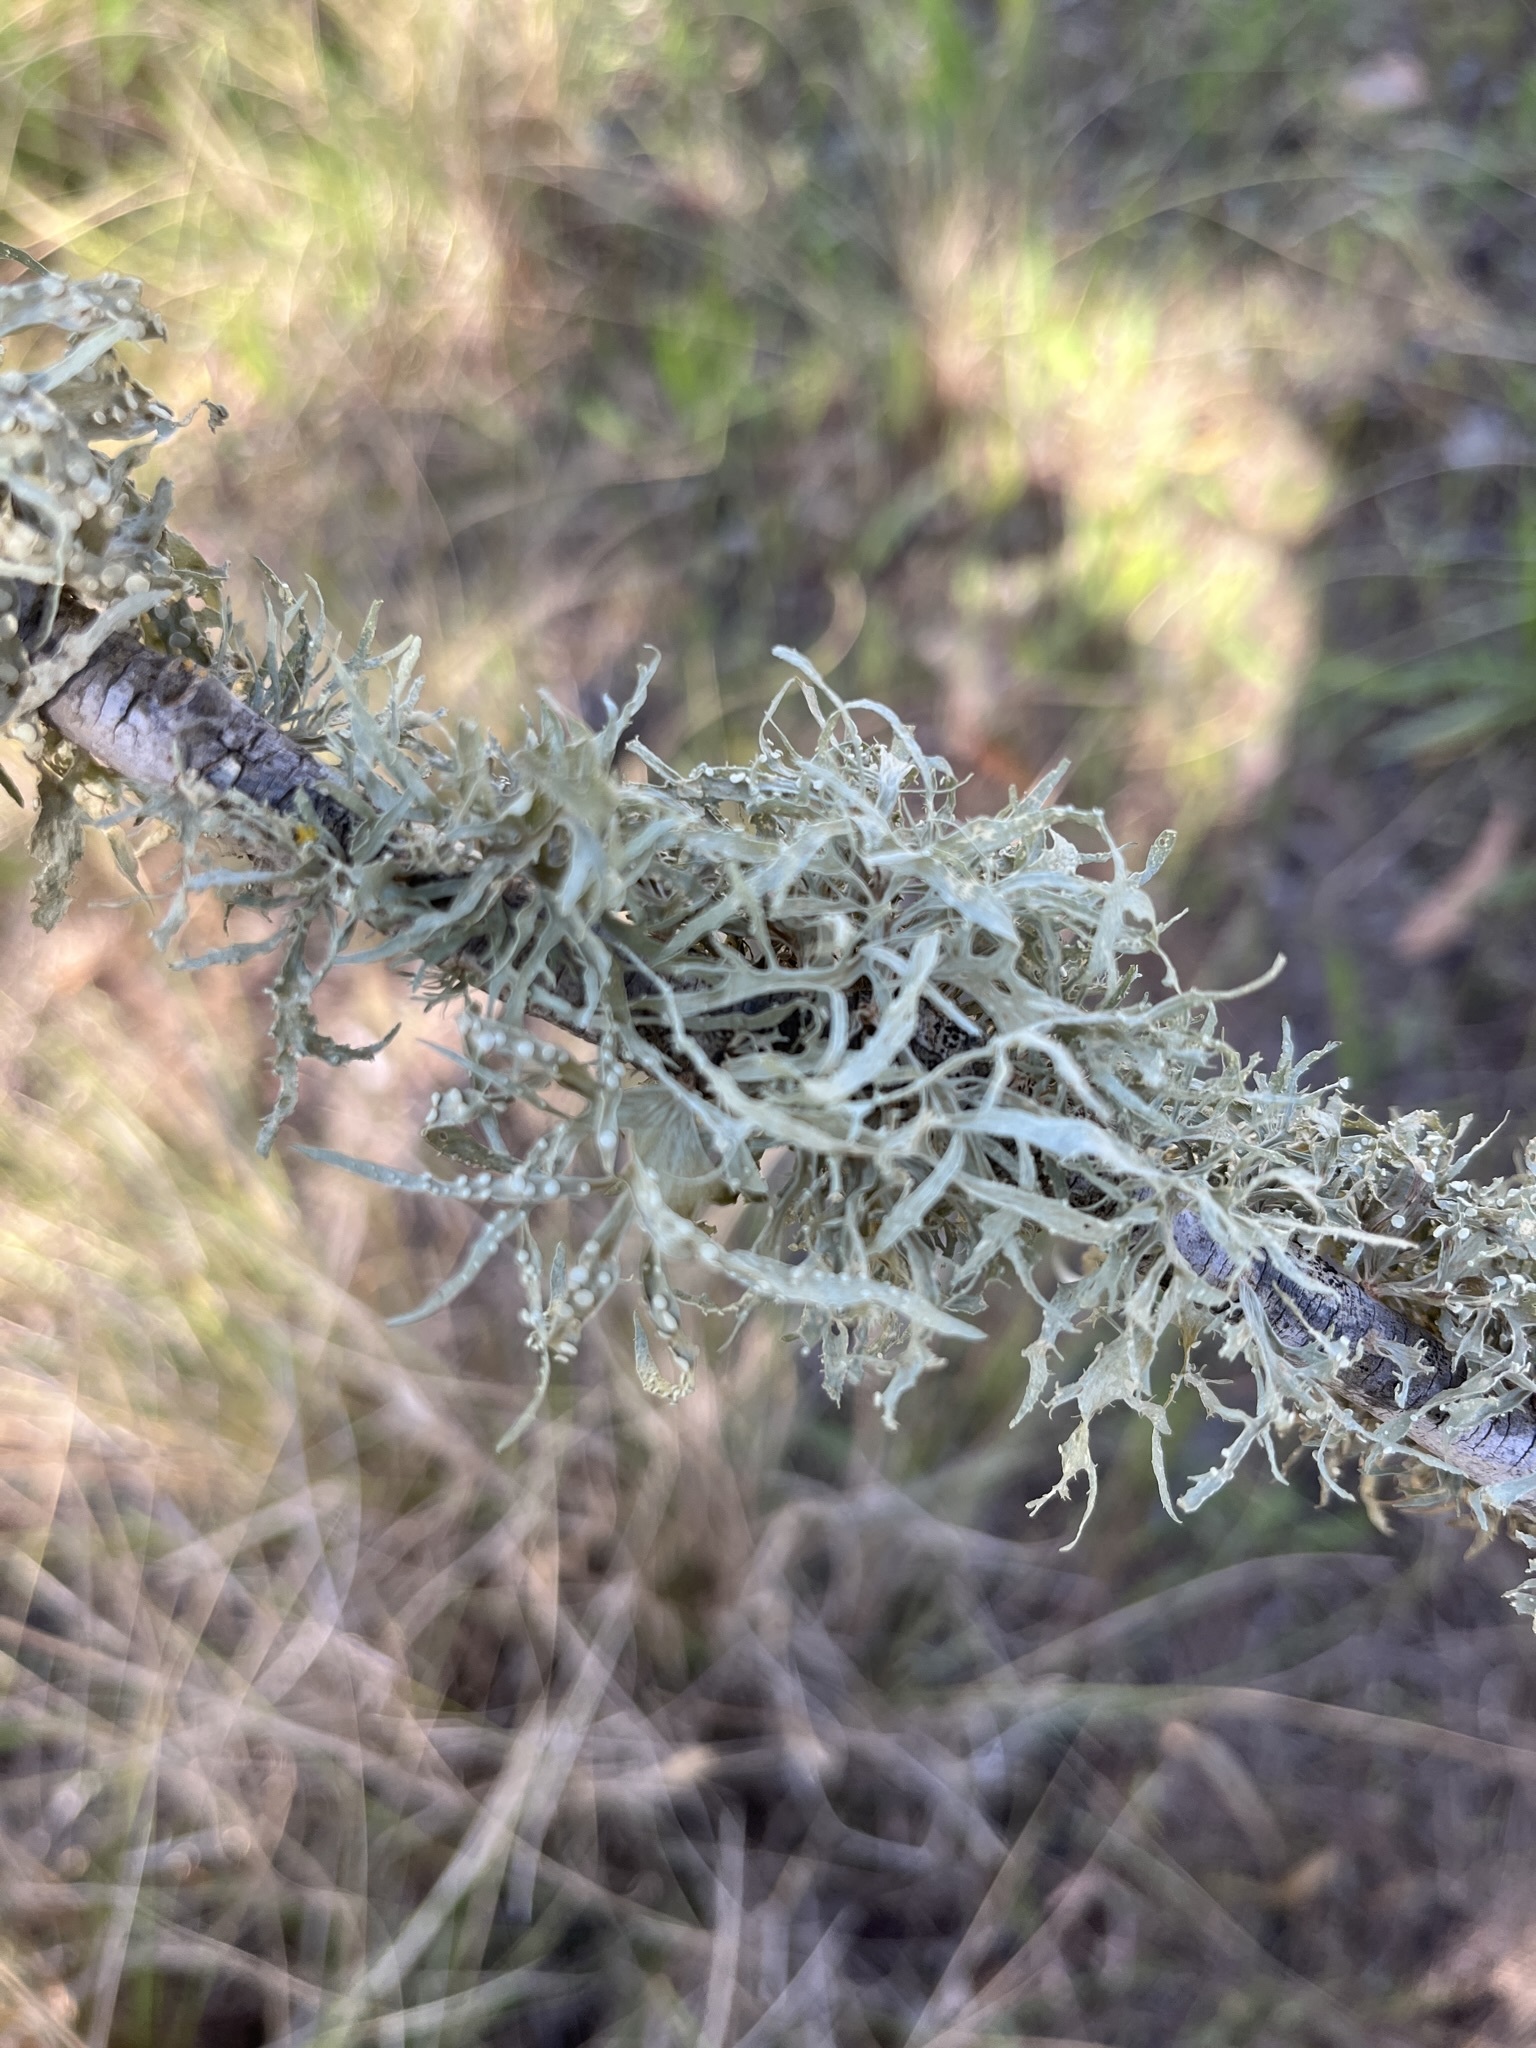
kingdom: Fungi
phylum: Ascomycota
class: Lecanoromycetes
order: Lecanorales
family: Ramalinaceae
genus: Ramalina
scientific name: Ramalina celastri
